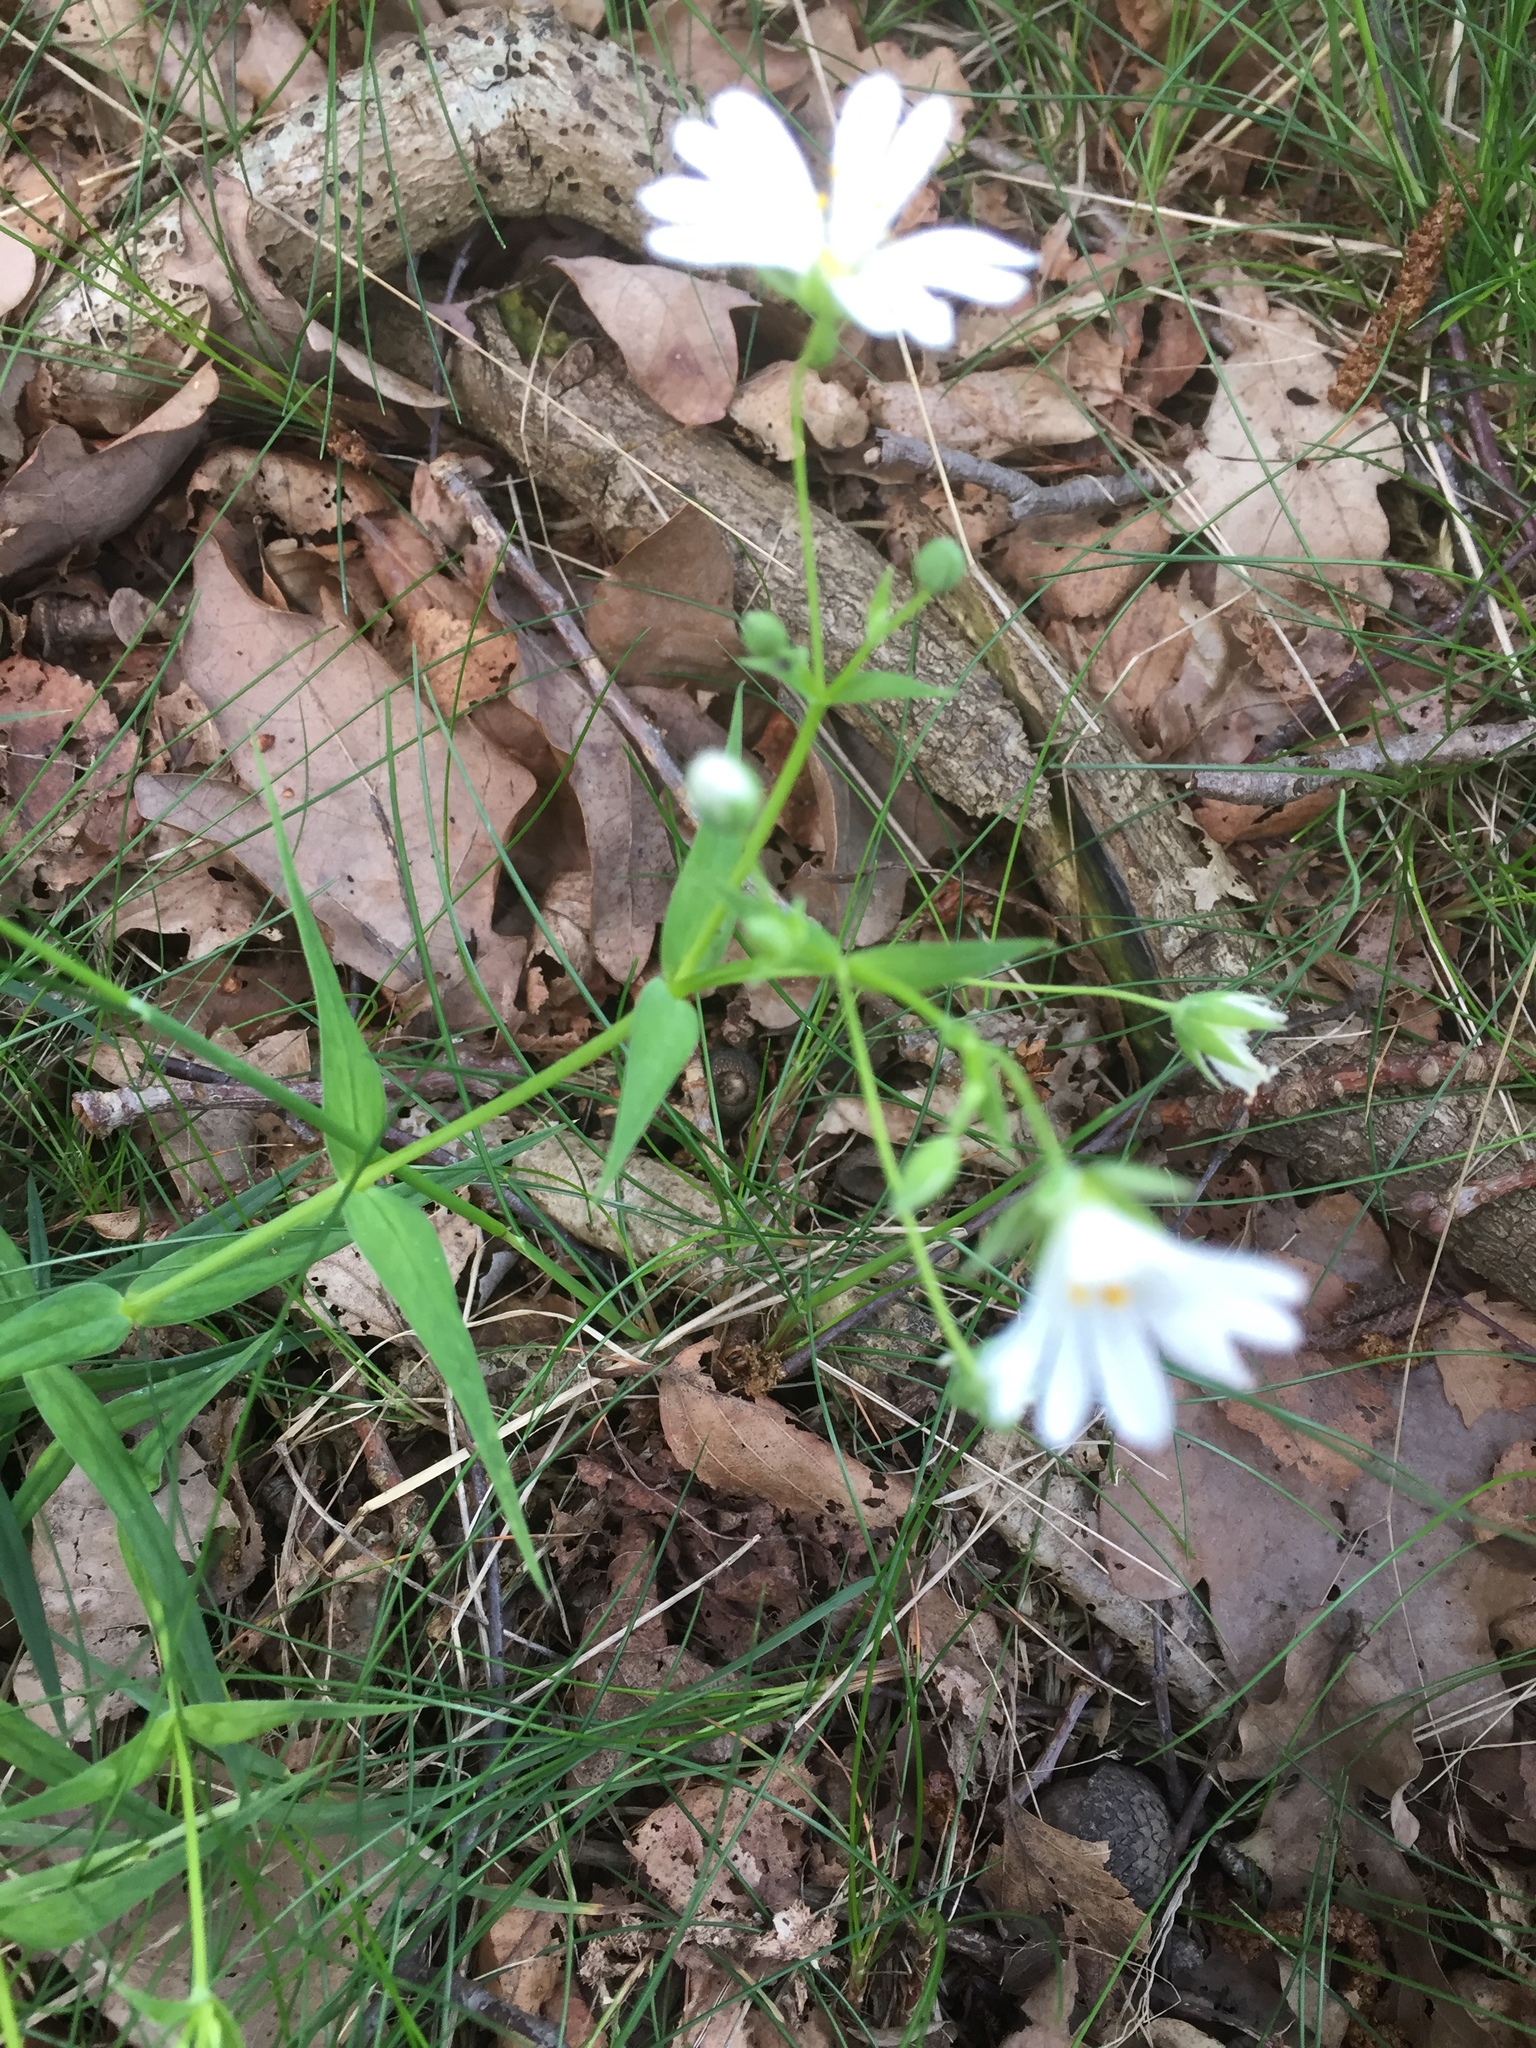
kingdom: Plantae
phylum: Tracheophyta
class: Magnoliopsida
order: Caryophyllales
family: Caryophyllaceae
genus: Rabelera
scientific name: Rabelera holostea
